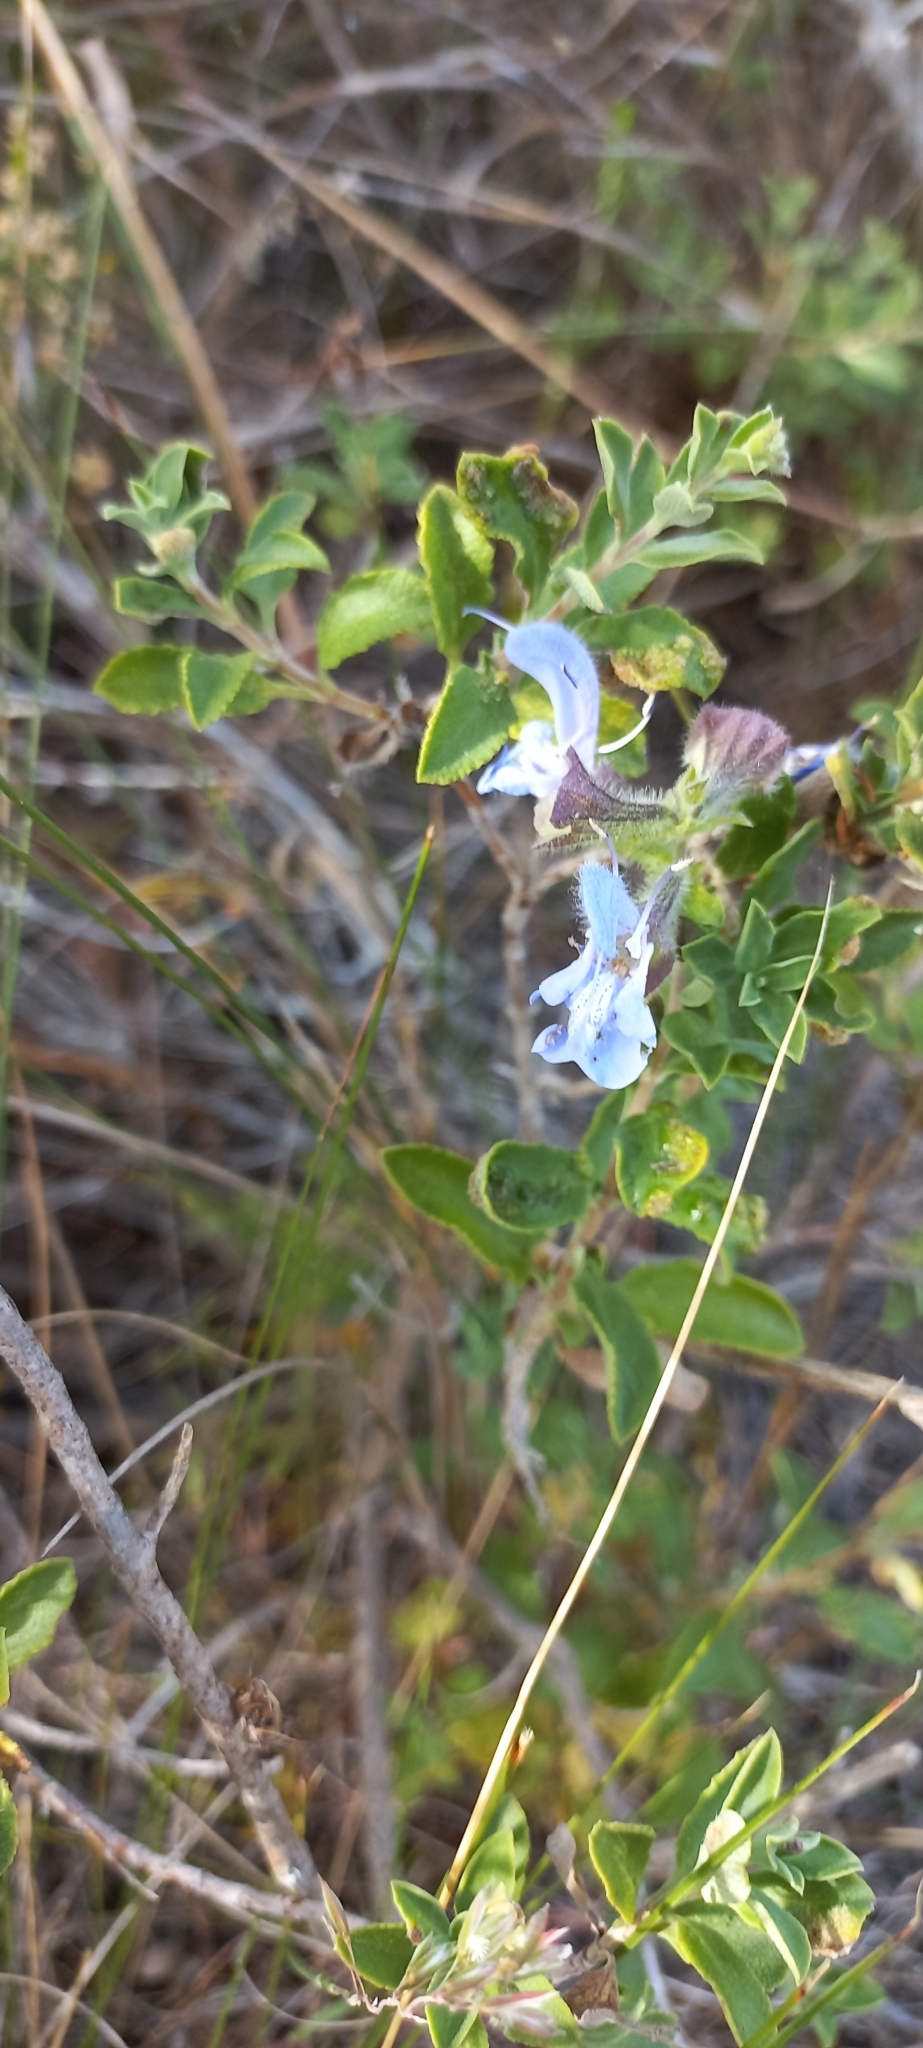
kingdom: Plantae
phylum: Tracheophyta
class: Magnoliopsida
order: Lamiales
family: Lamiaceae
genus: Salvia
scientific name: Salvia africana
